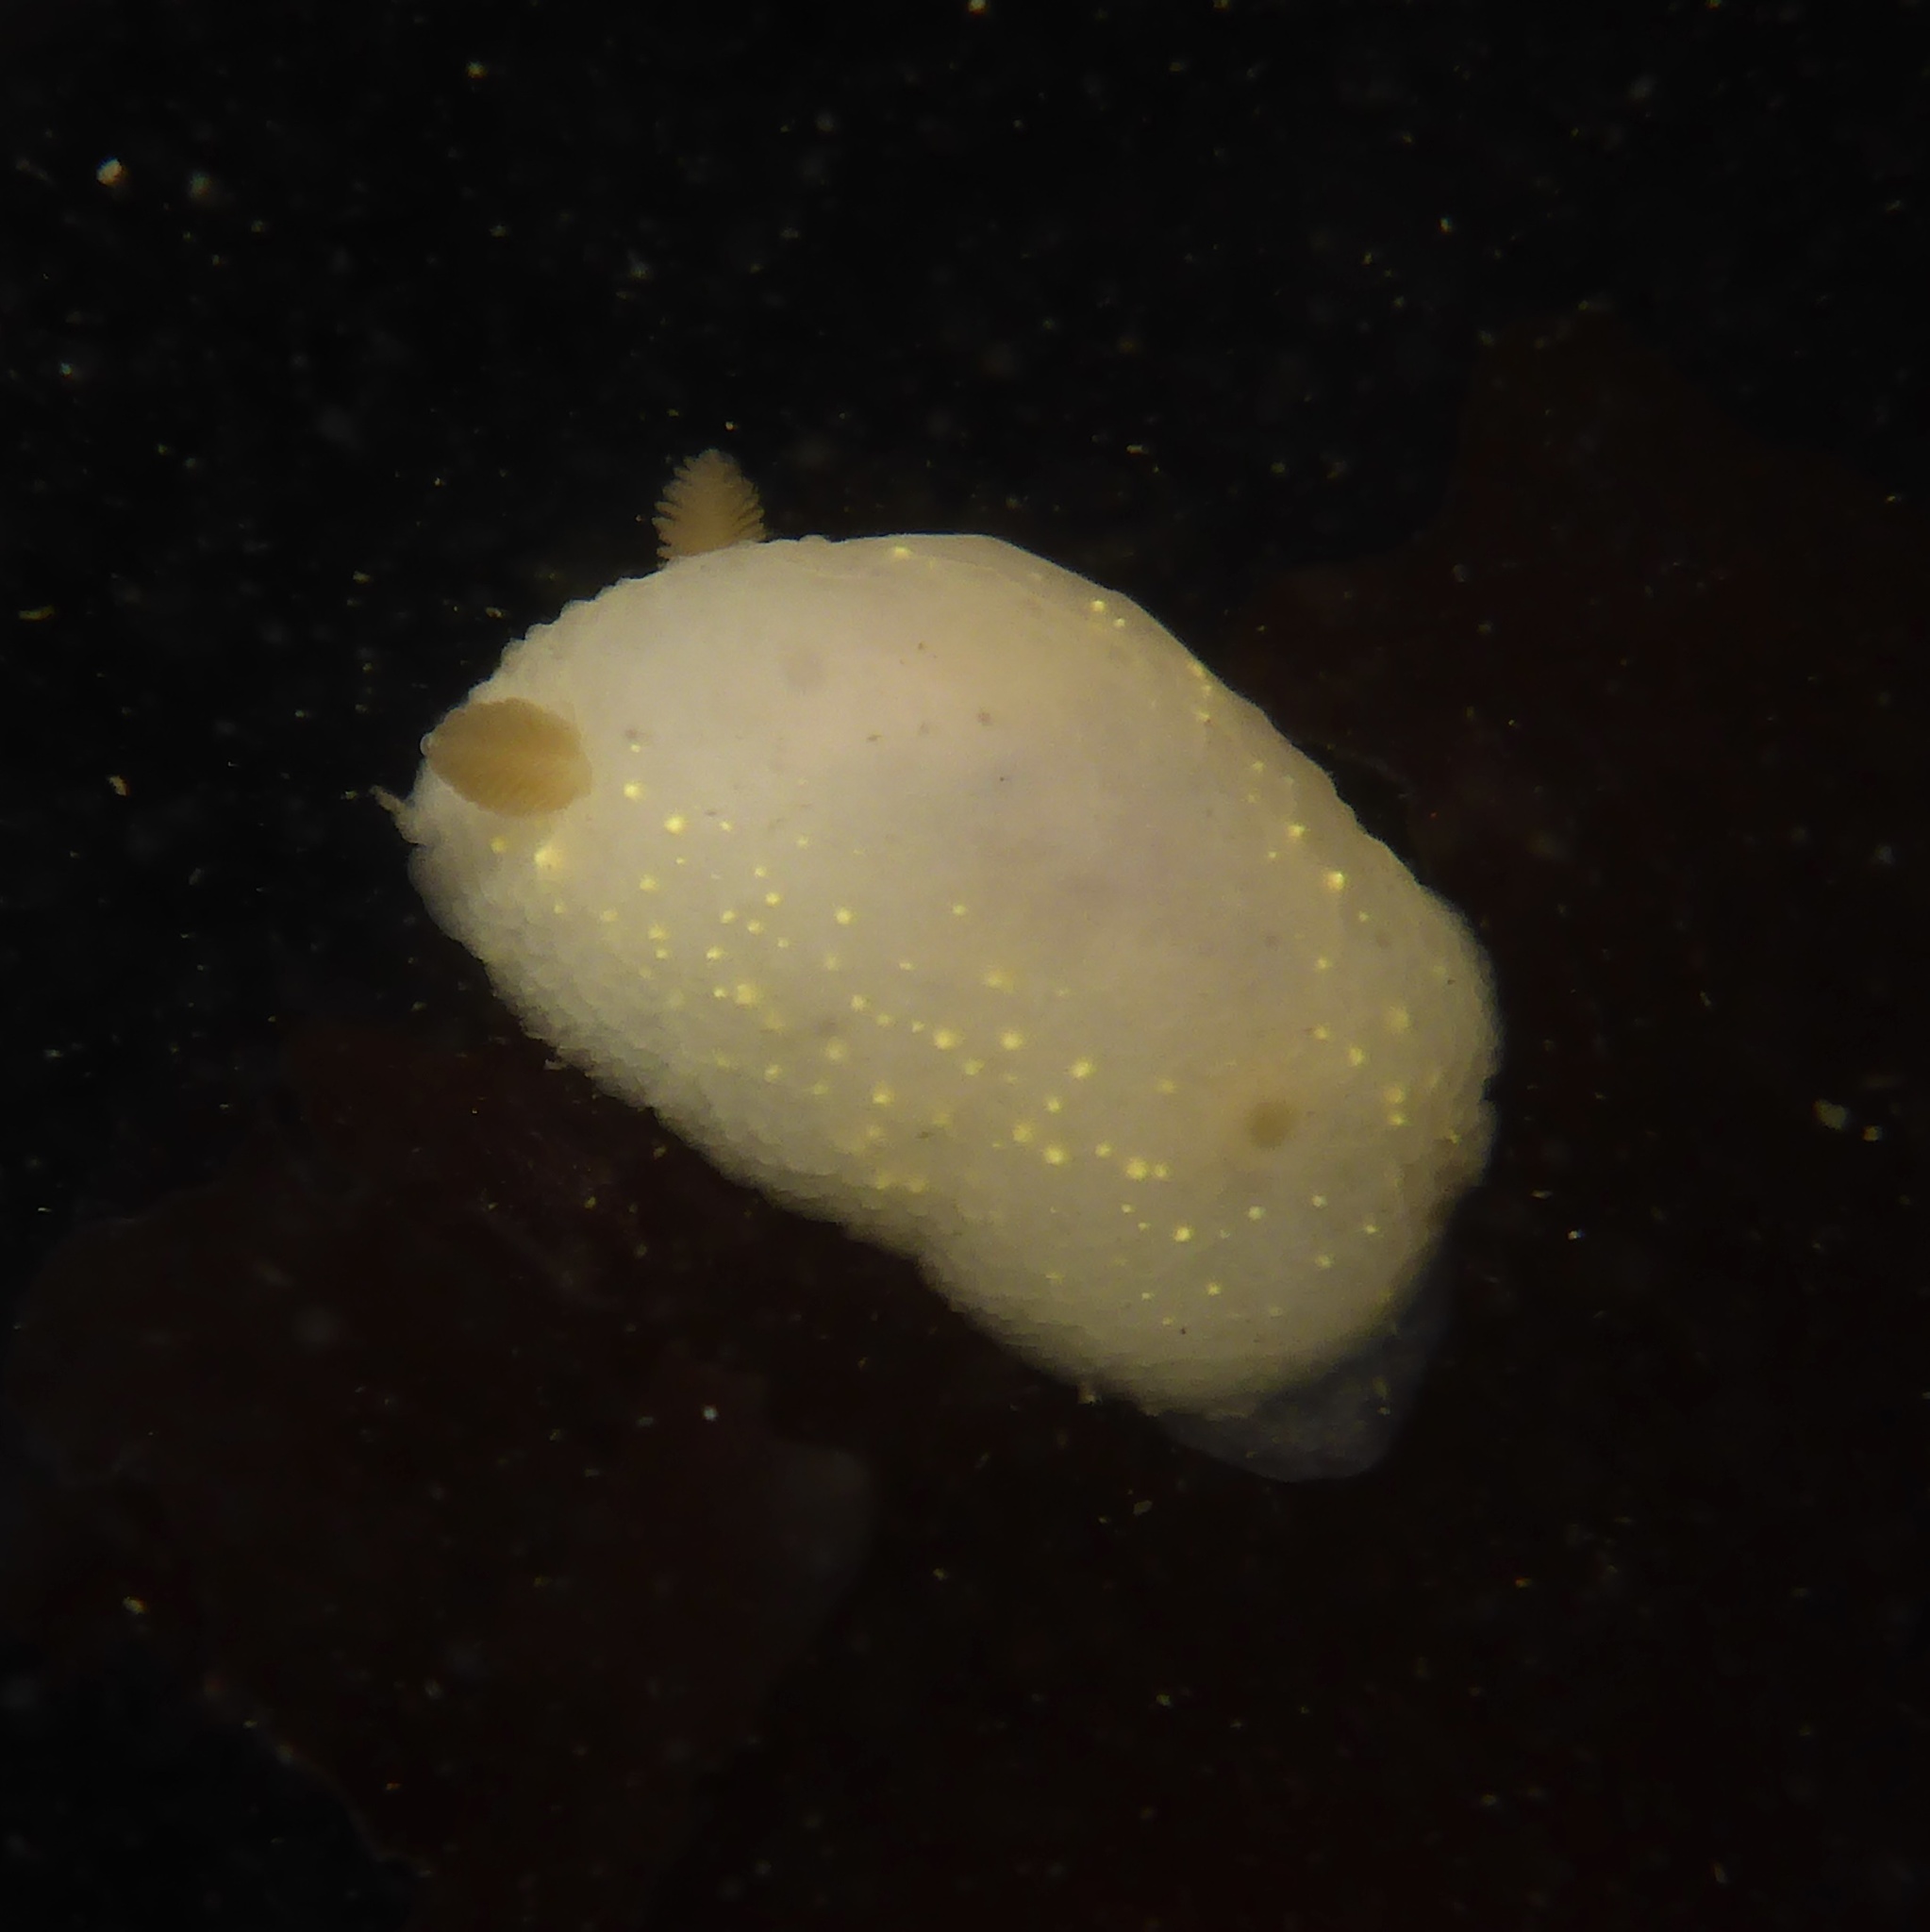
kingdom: Animalia
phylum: Mollusca
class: Gastropoda
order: Nudibranchia
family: Cadlinidae
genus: Cadlina
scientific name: Cadlina modesta
